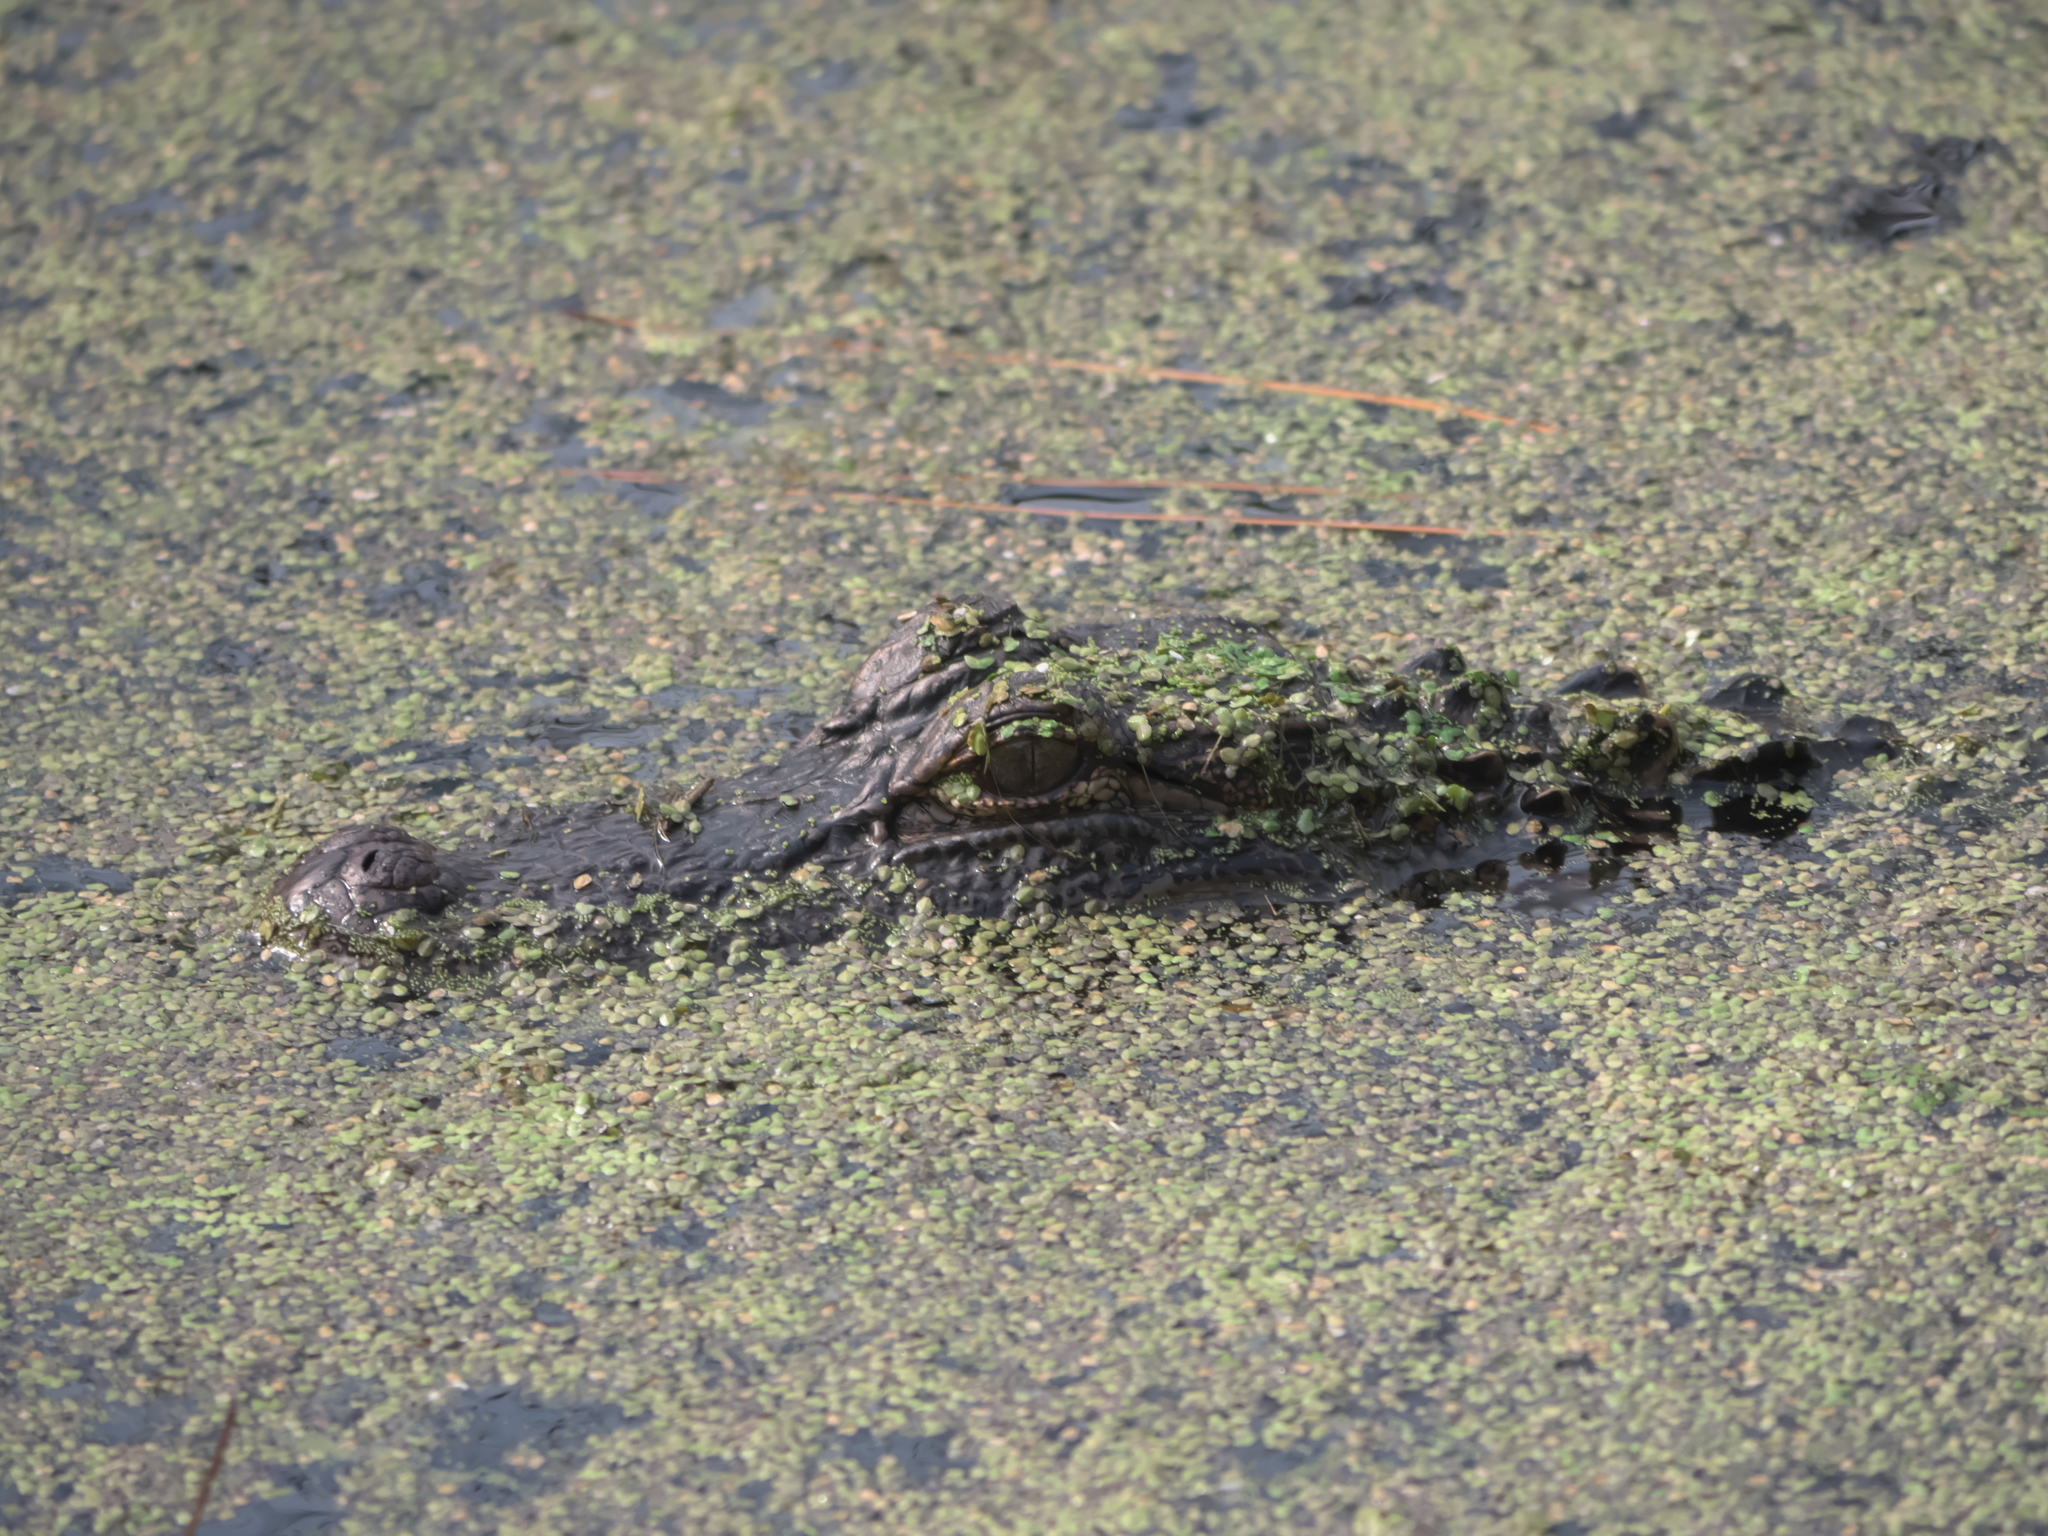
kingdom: Animalia
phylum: Chordata
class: Crocodylia
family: Alligatoridae
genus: Alligator
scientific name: Alligator mississippiensis
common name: American alligator
